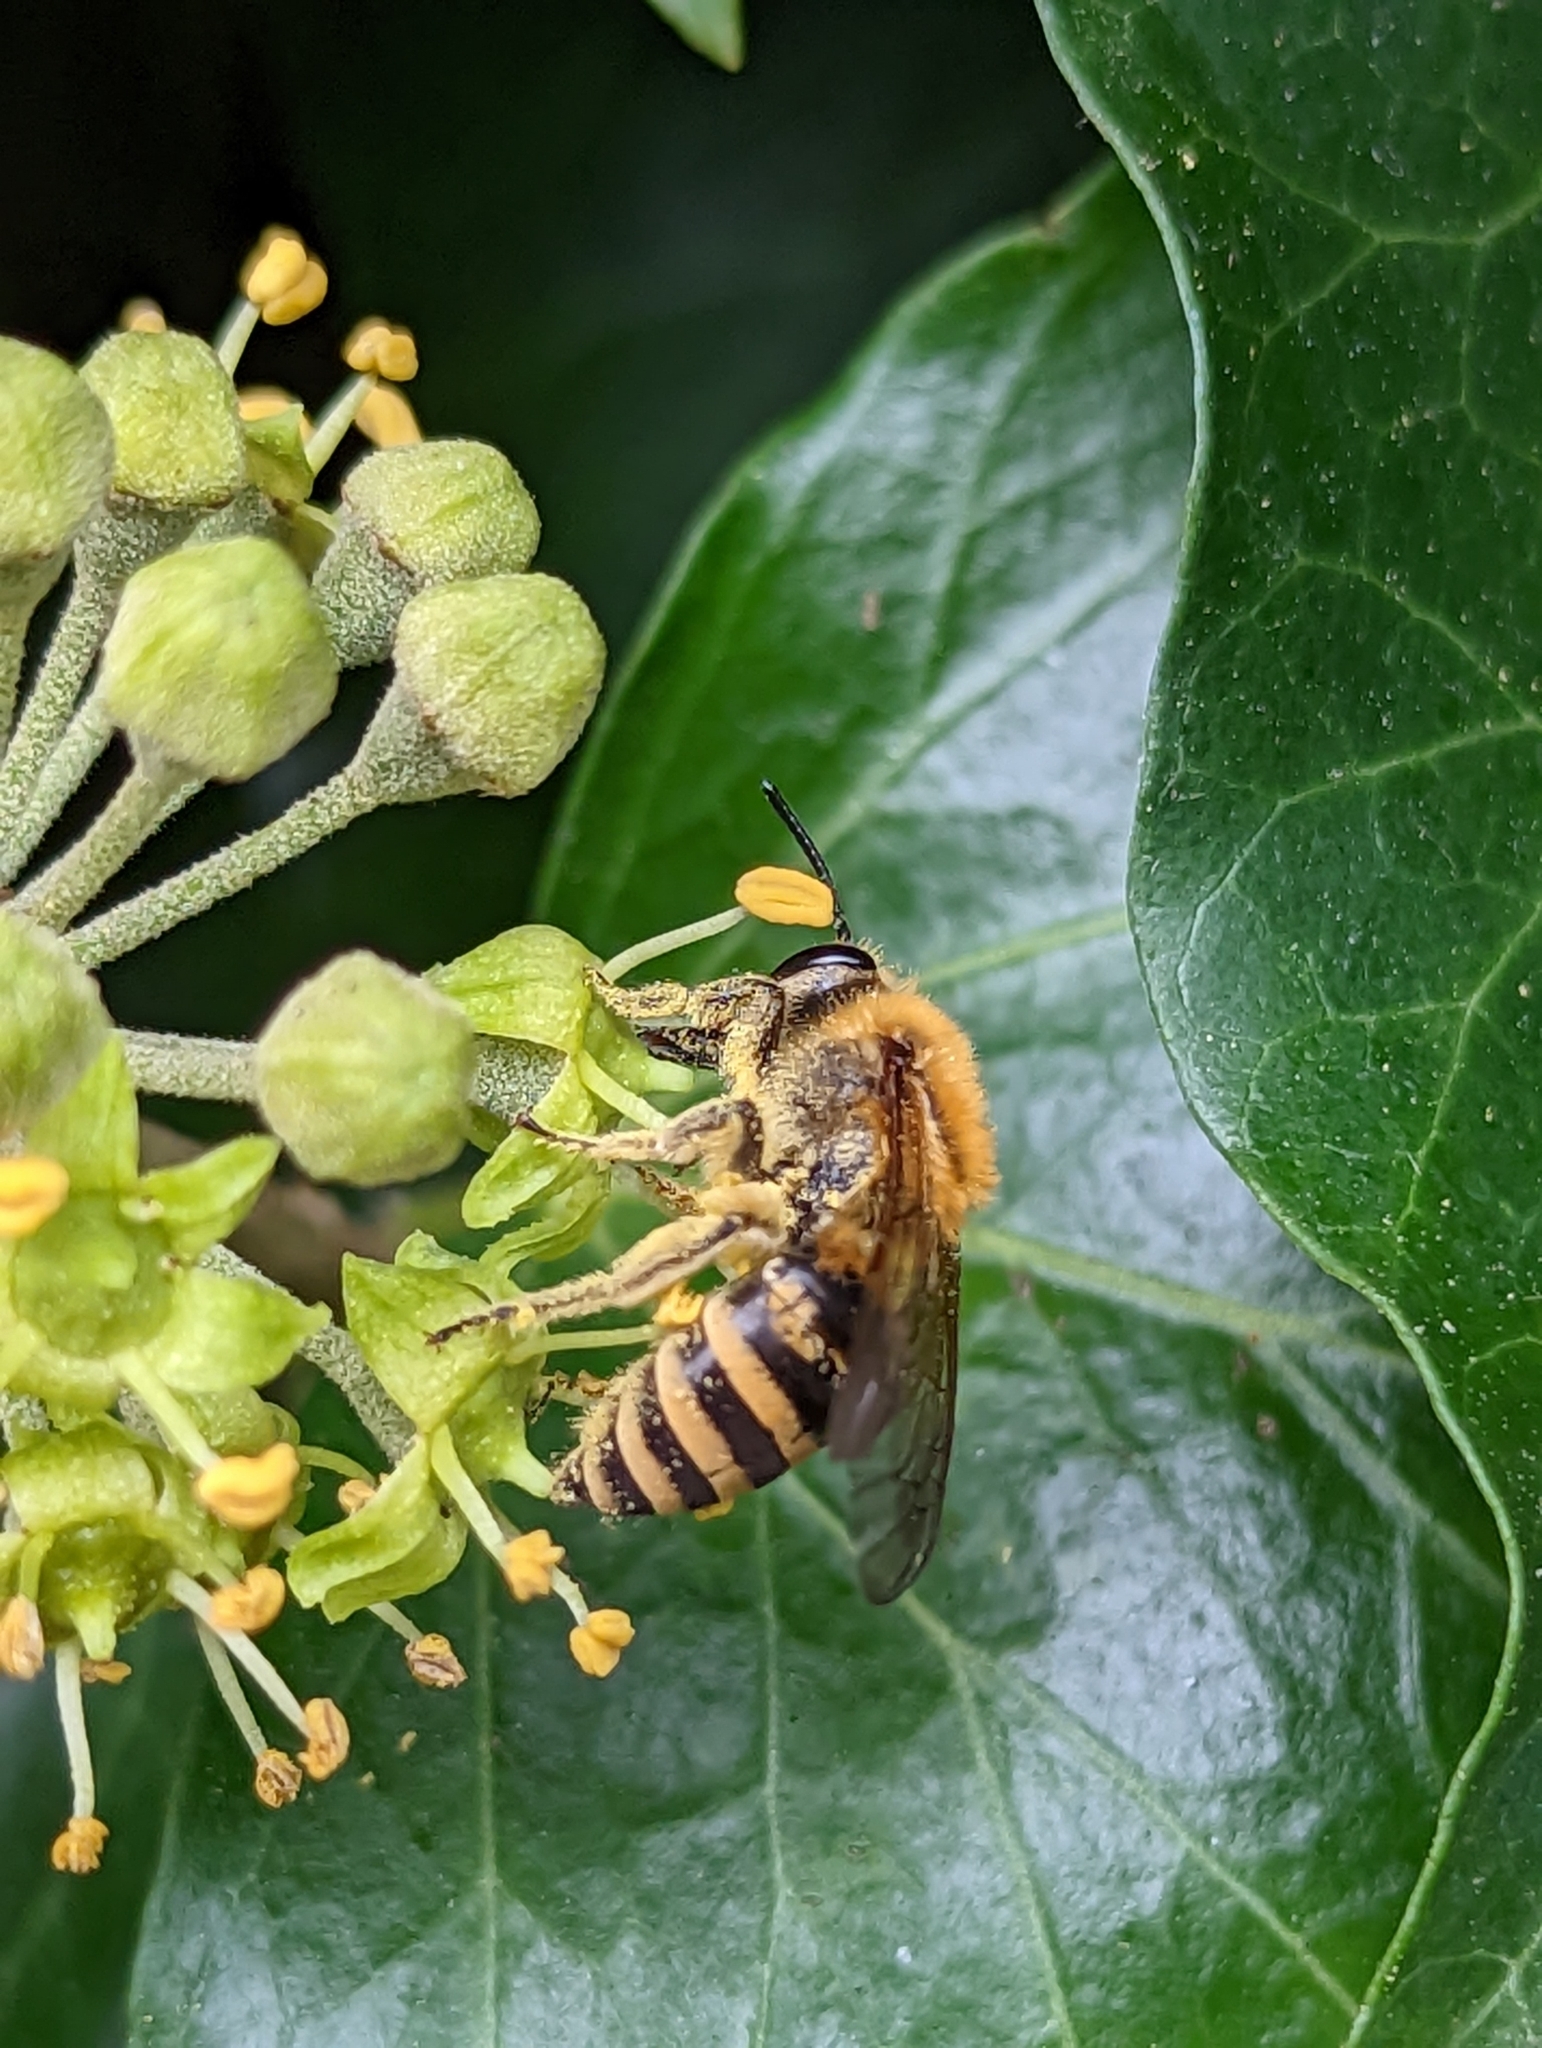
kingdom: Animalia
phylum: Arthropoda
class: Insecta
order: Hymenoptera
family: Colletidae
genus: Colletes
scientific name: Colletes hederae
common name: Ivy bee
